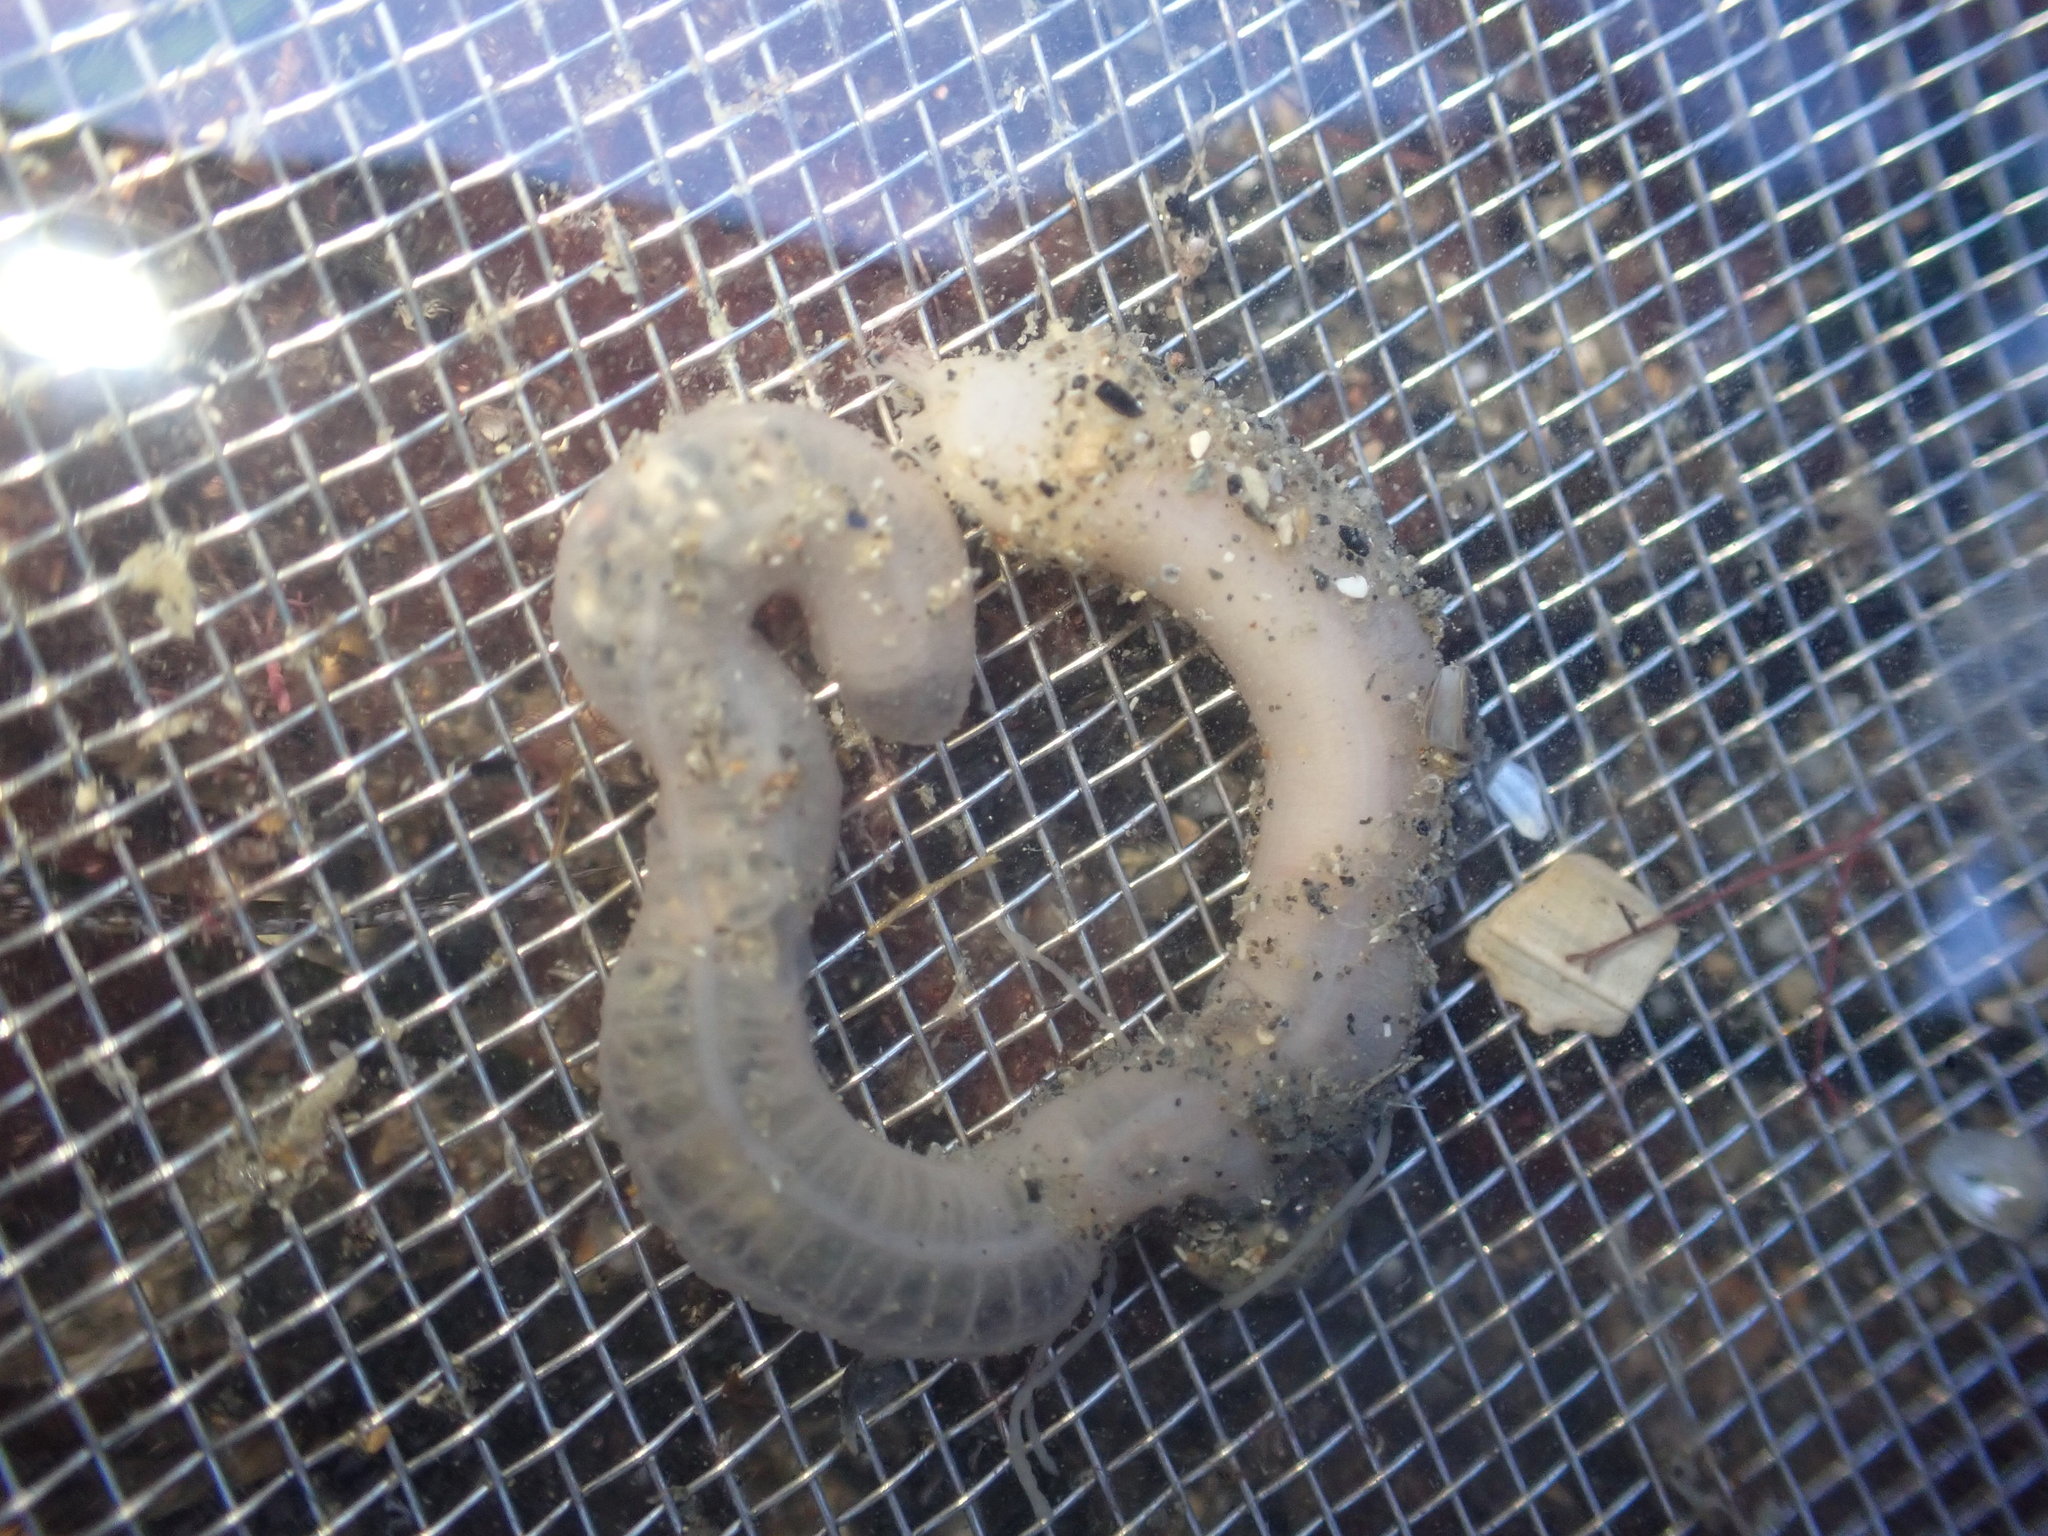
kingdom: Animalia
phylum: Echinodermata
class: Holothuroidea
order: Apodida
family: Chiridotidae
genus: Taeniogyrus
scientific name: Taeniogyrus dendyi
